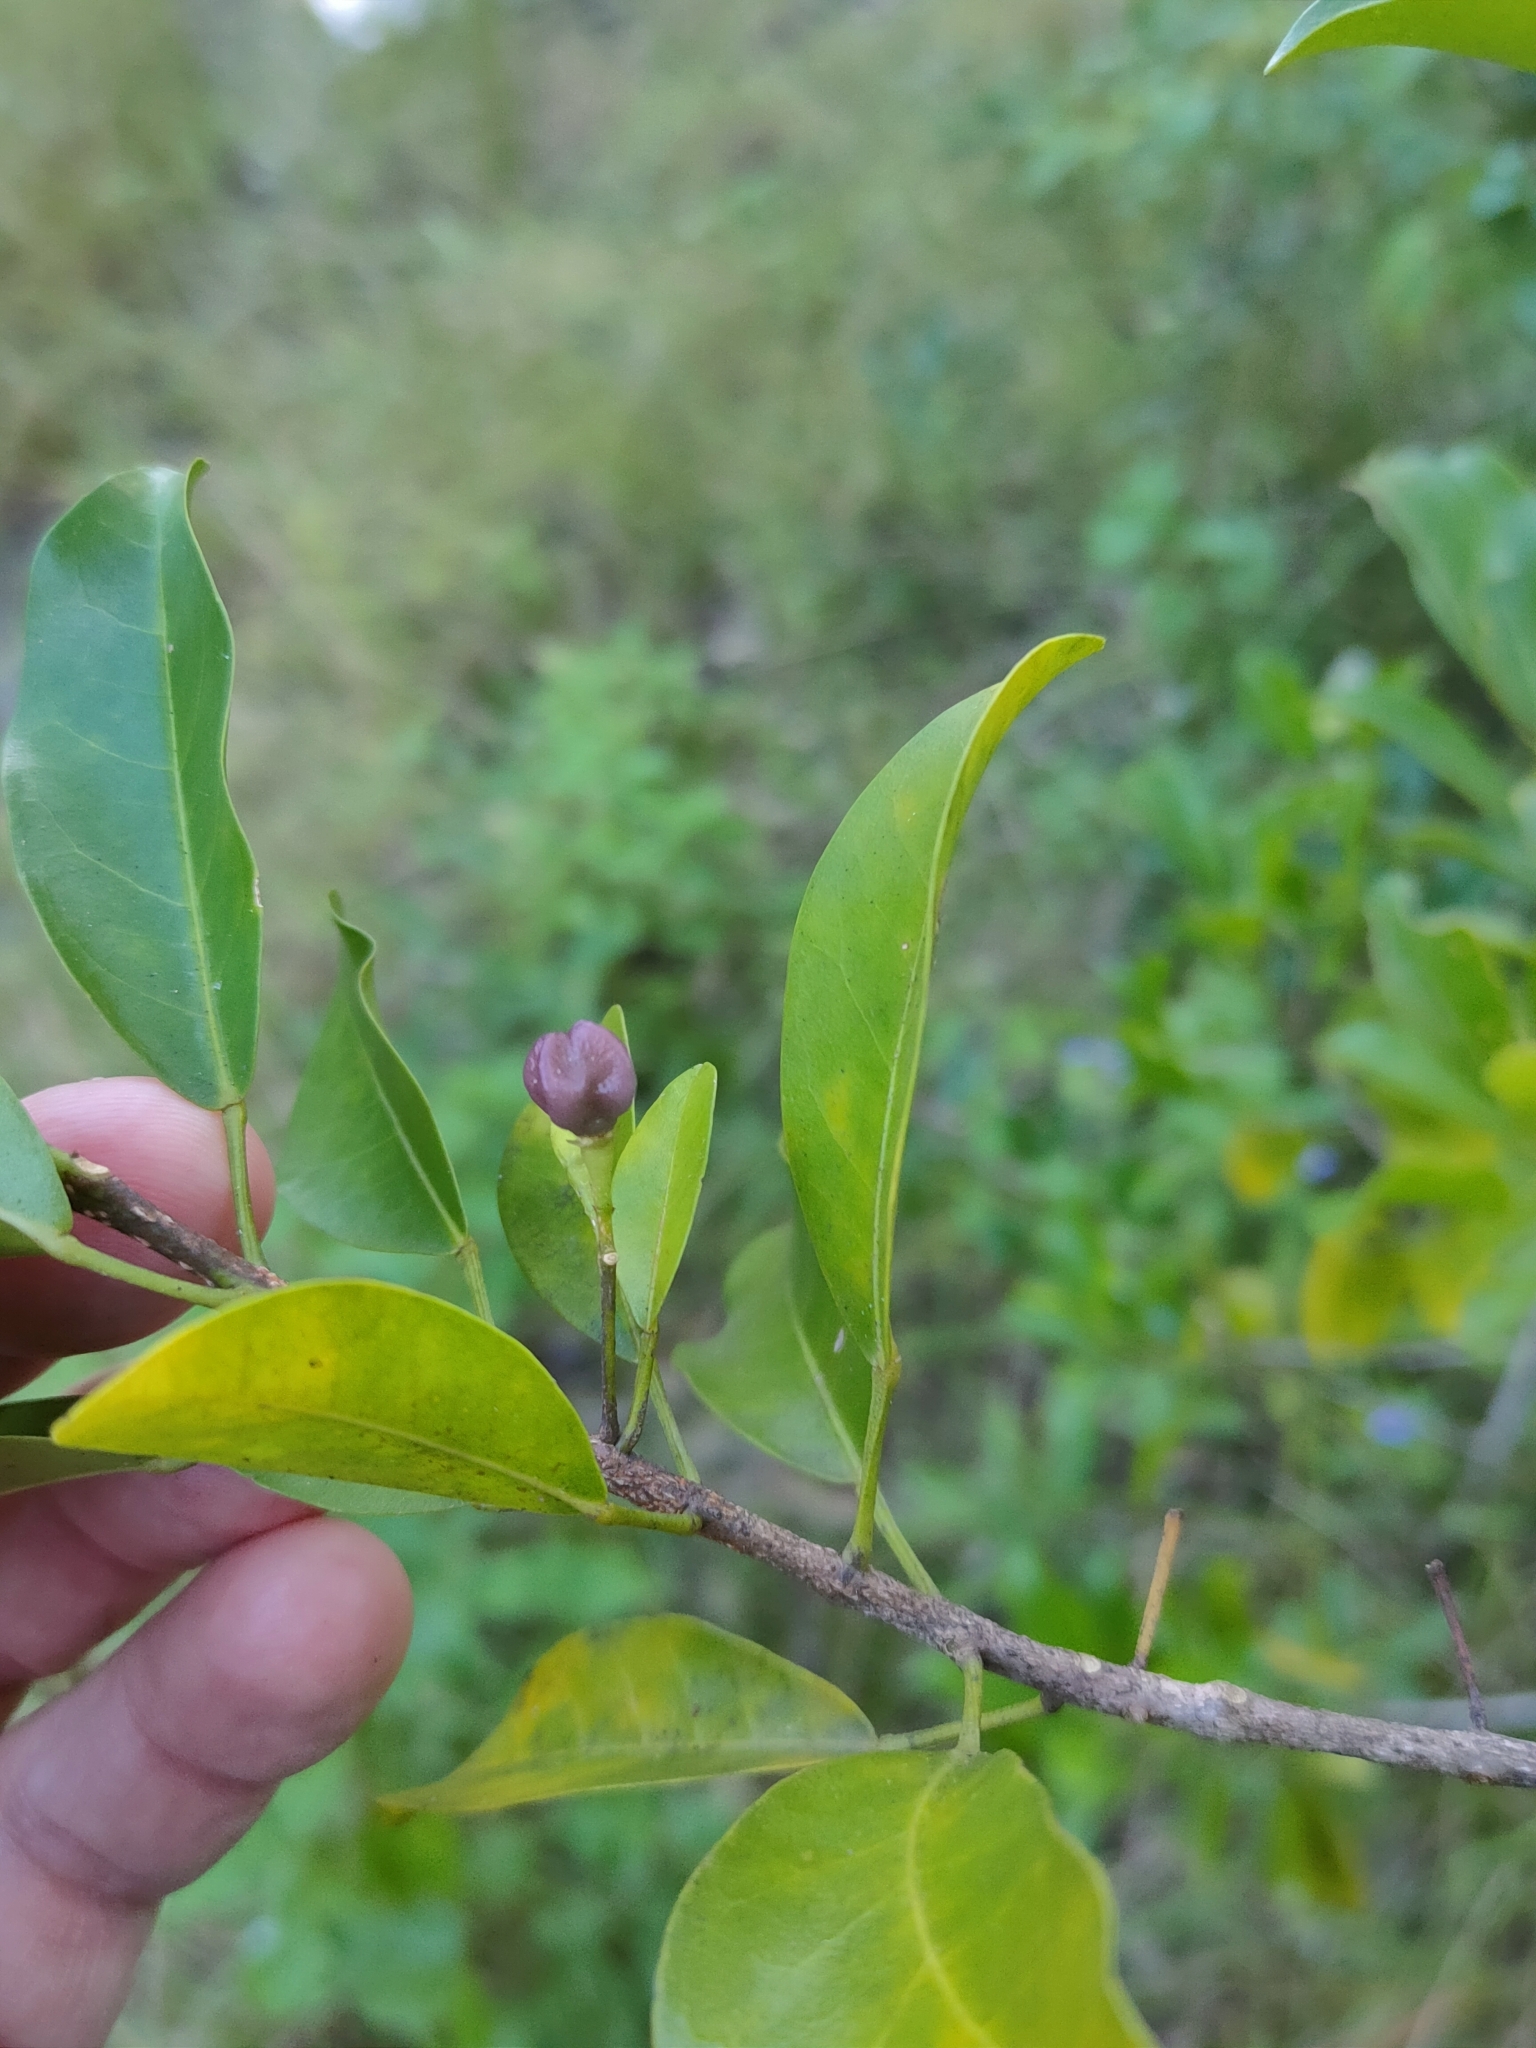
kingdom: Plantae
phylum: Tracheophyta
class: Magnoliopsida
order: Sapindales
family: Rutaceae
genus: Acronychia
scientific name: Acronychia laevis
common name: Hard aspen
